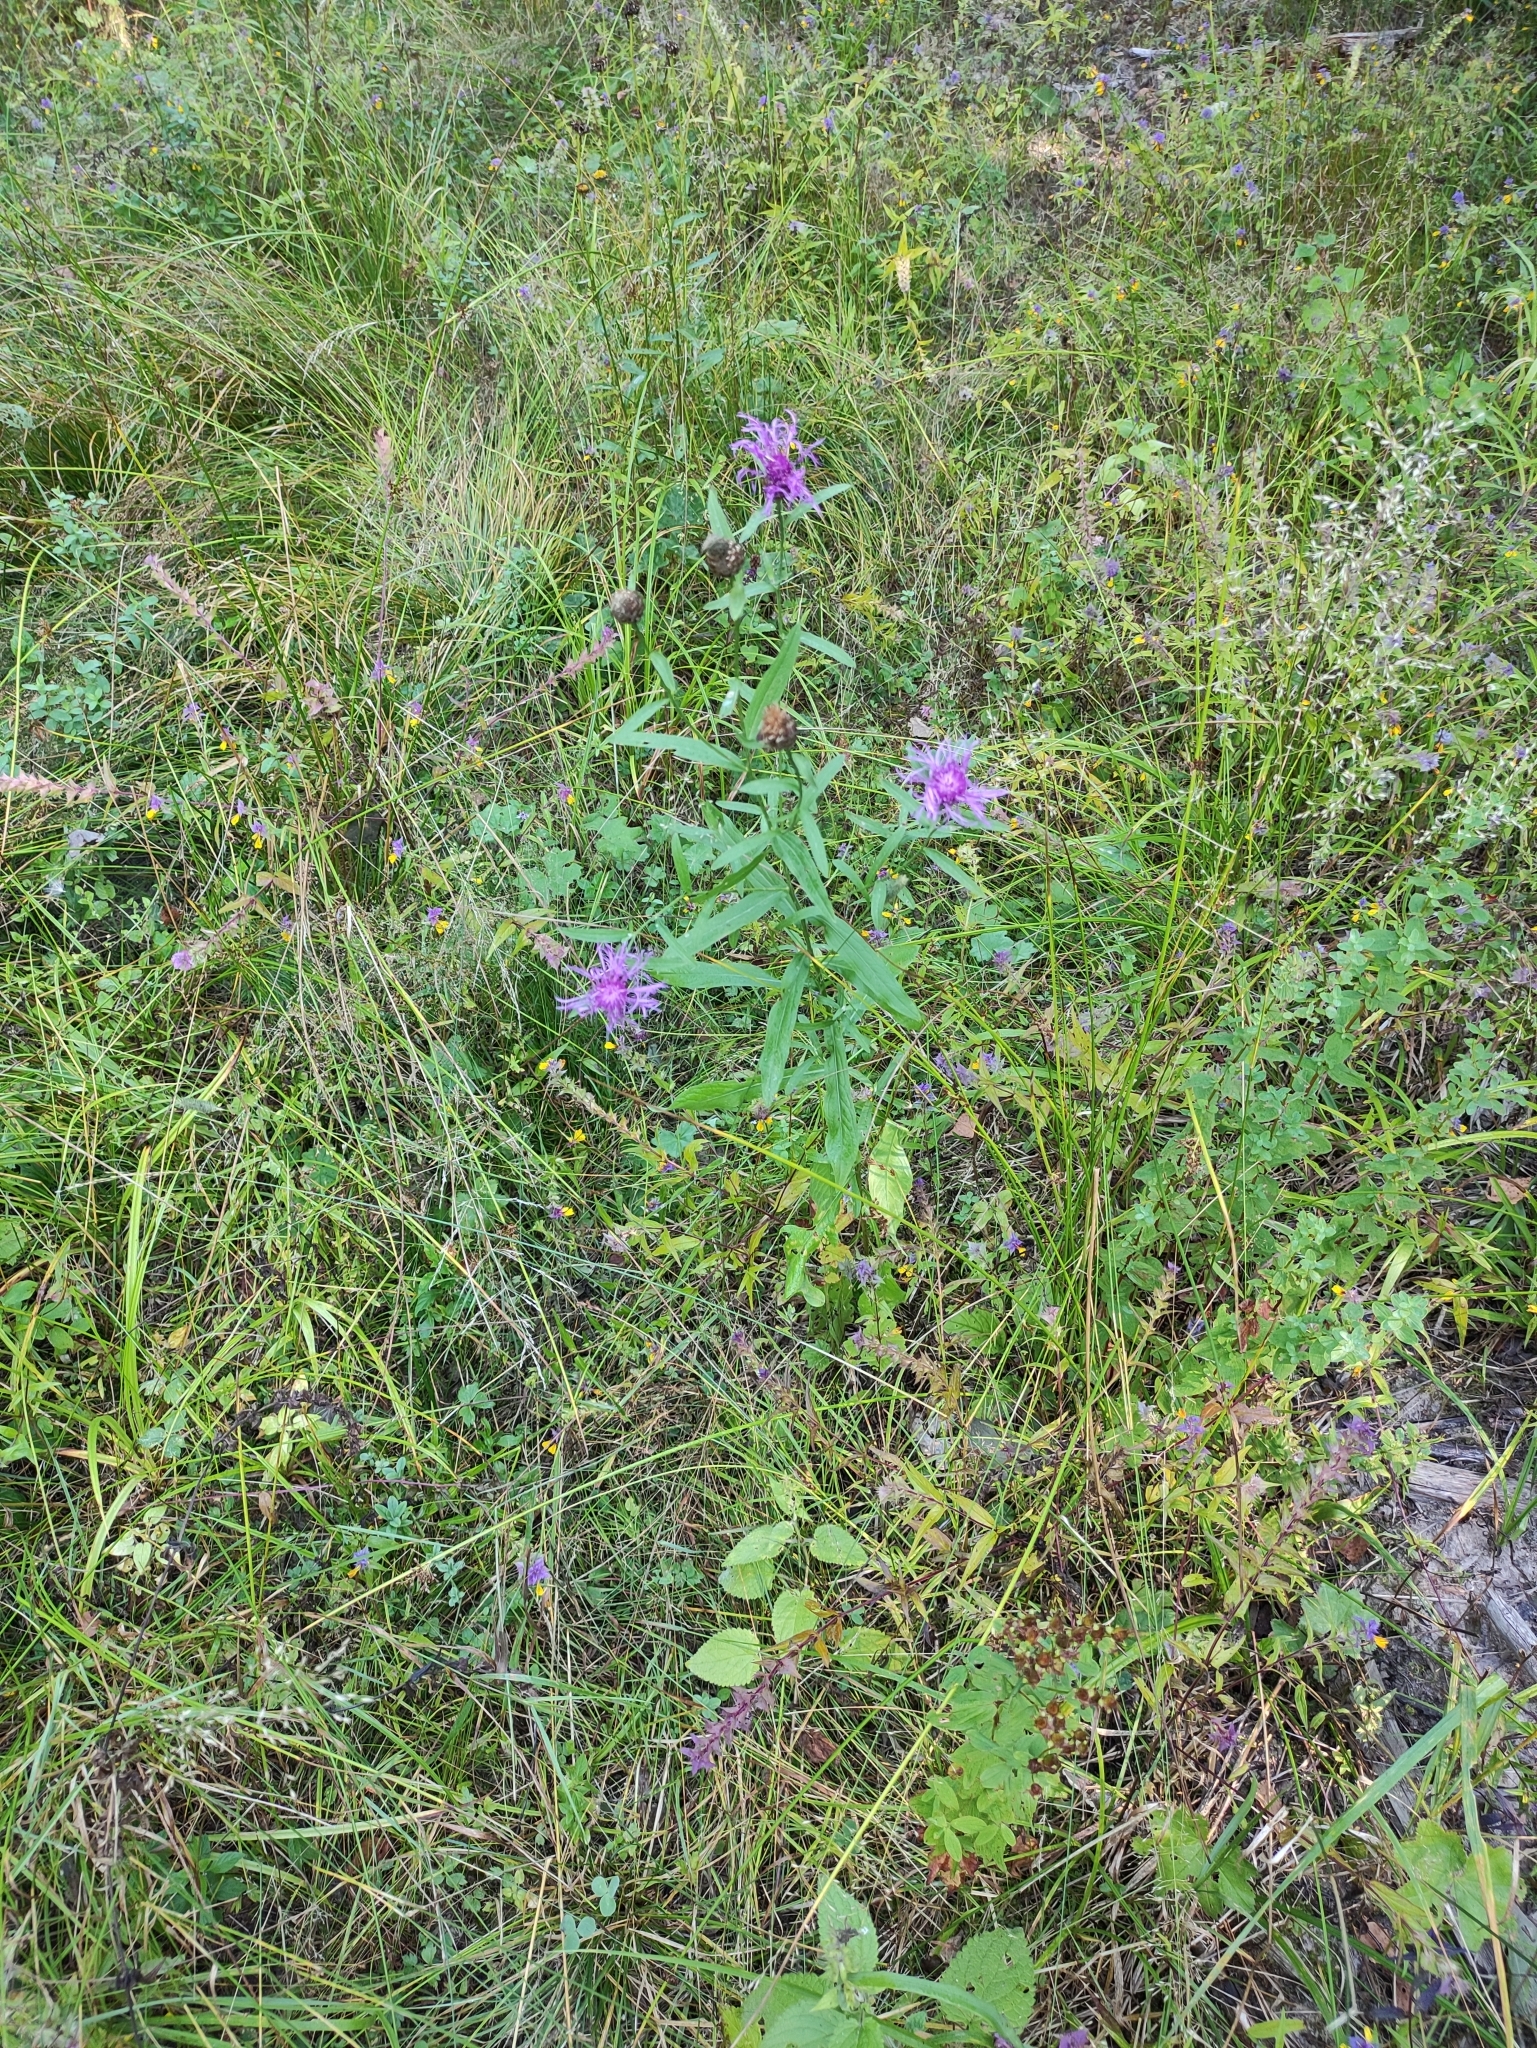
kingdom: Plantae
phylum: Tracheophyta
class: Magnoliopsida
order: Asterales
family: Asteraceae
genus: Centaurea
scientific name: Centaurea jacea
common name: Brown knapweed
